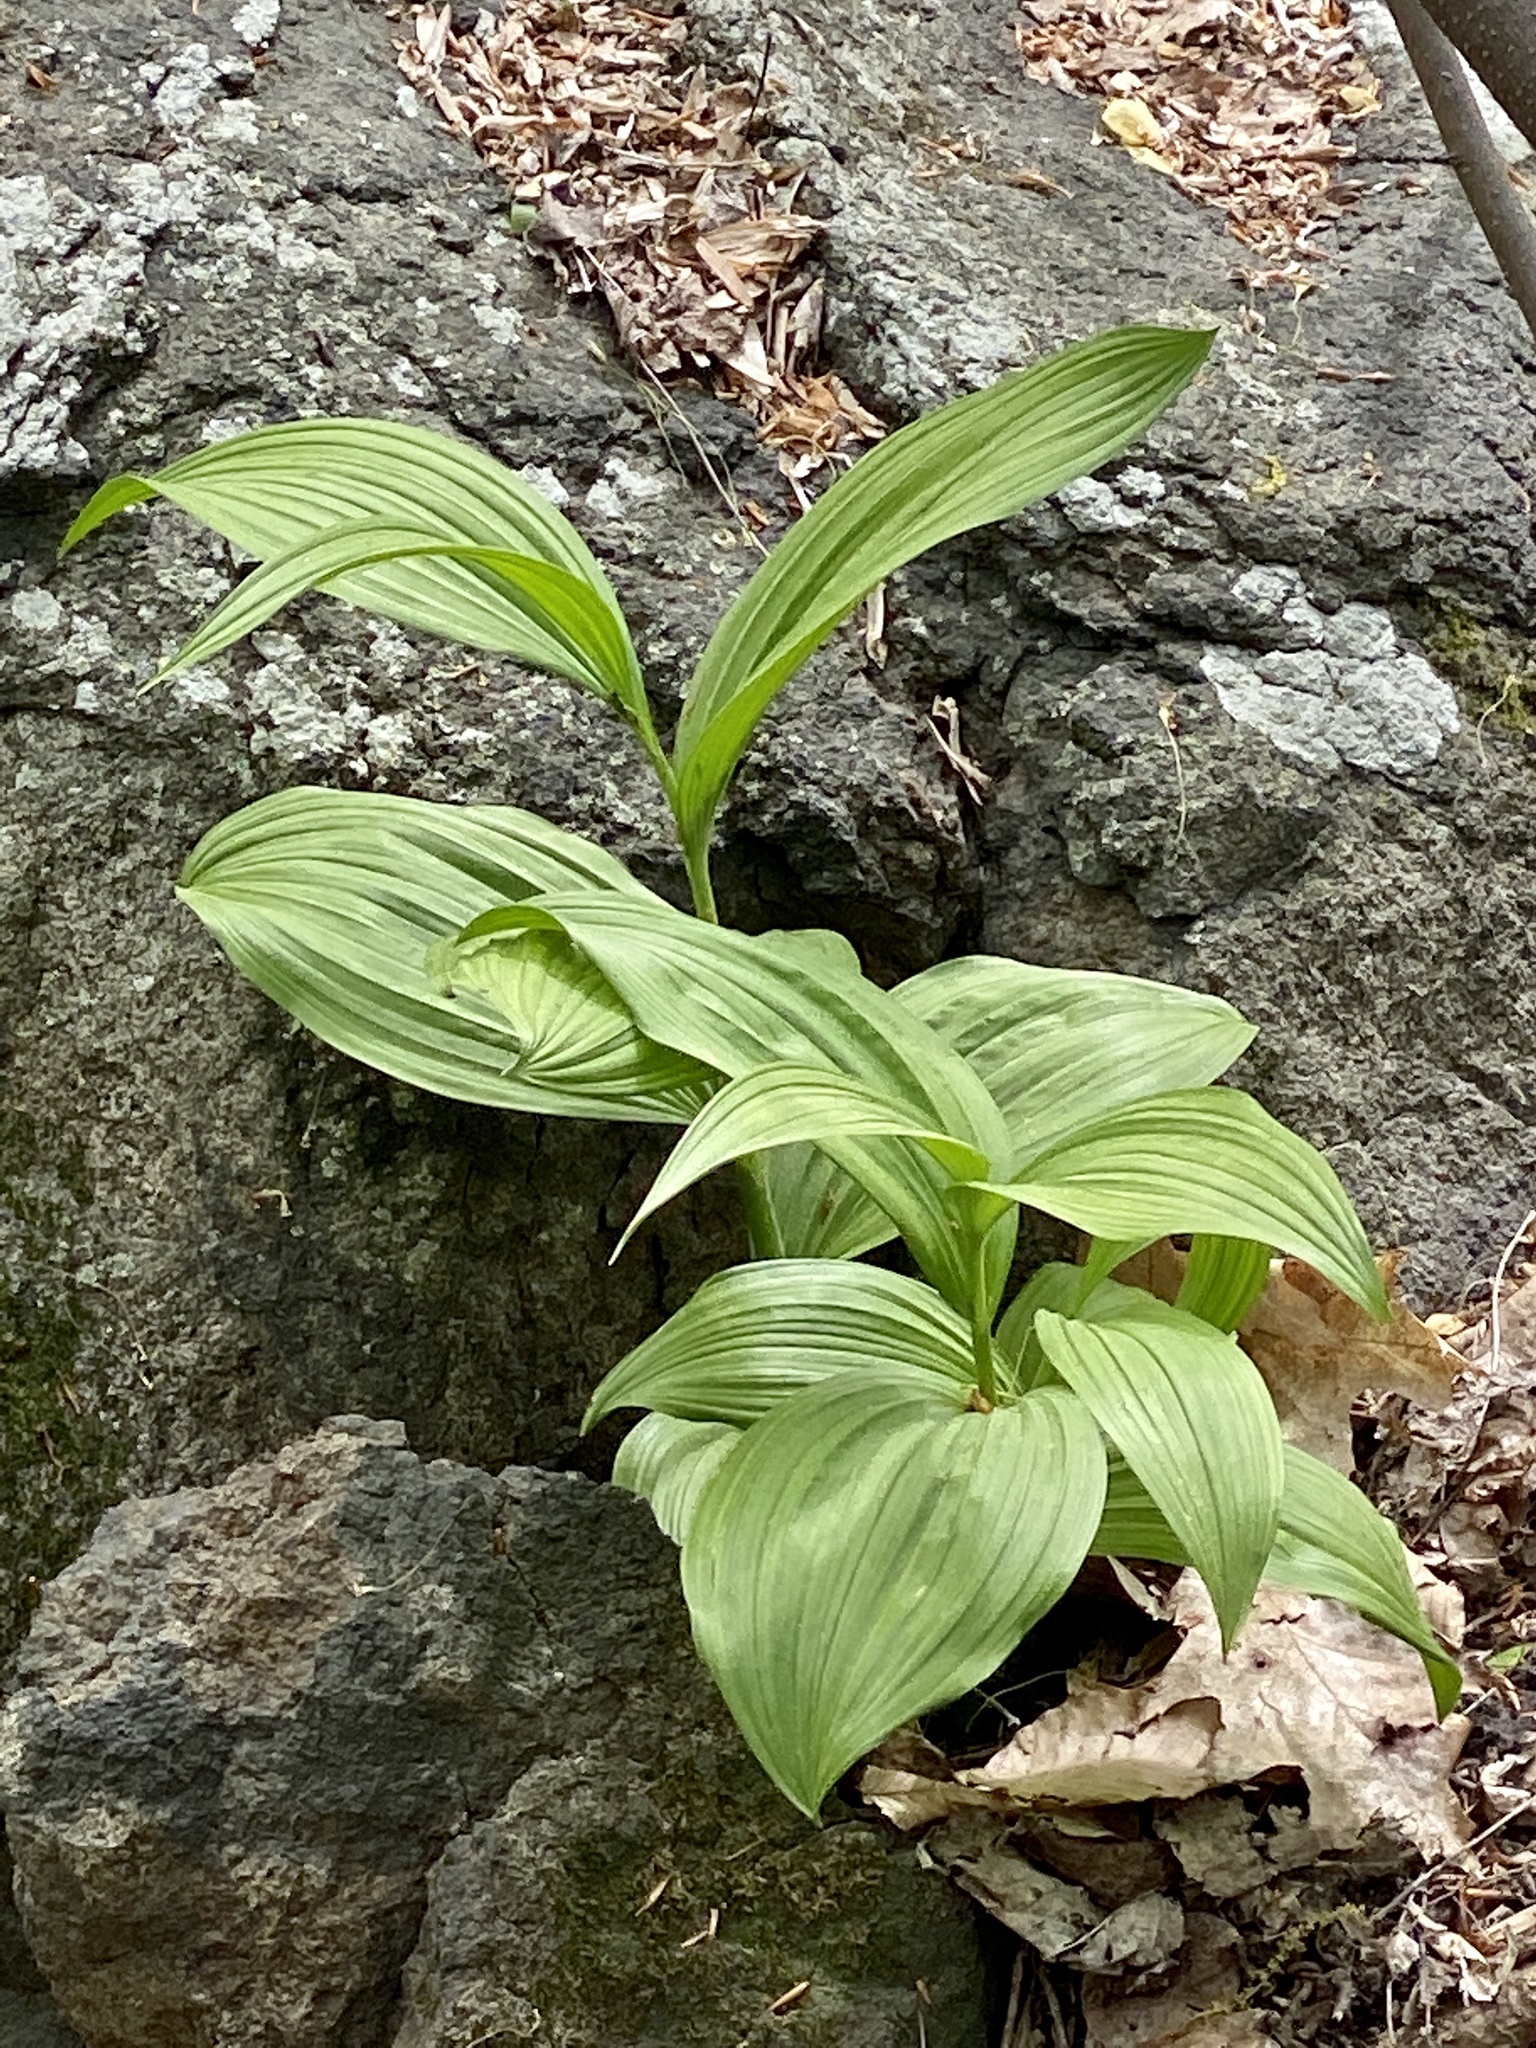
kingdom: Plantae
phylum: Tracheophyta
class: Liliopsida
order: Liliales
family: Melanthiaceae
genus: Veratrum
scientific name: Veratrum viride
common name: American false hellebore
